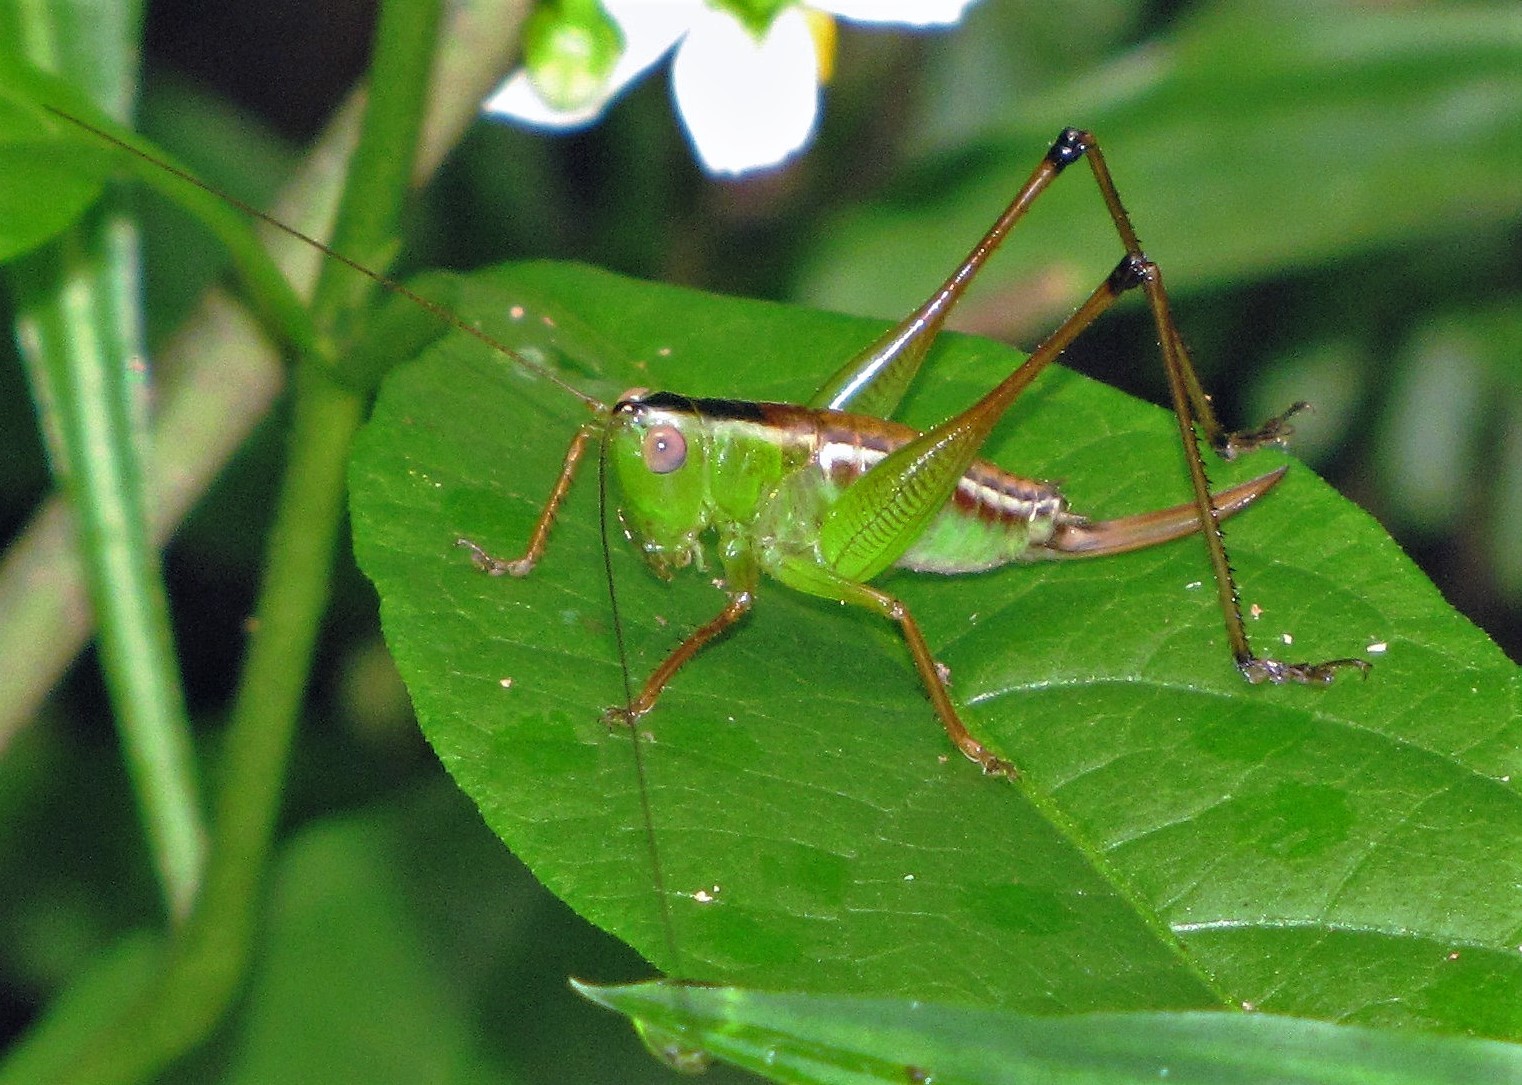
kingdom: Animalia
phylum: Arthropoda
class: Insecta
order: Orthoptera
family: Tettigoniidae
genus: Xiphelimum
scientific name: Xiphelimum amplipennis
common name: Clear-wing meadow katydid
